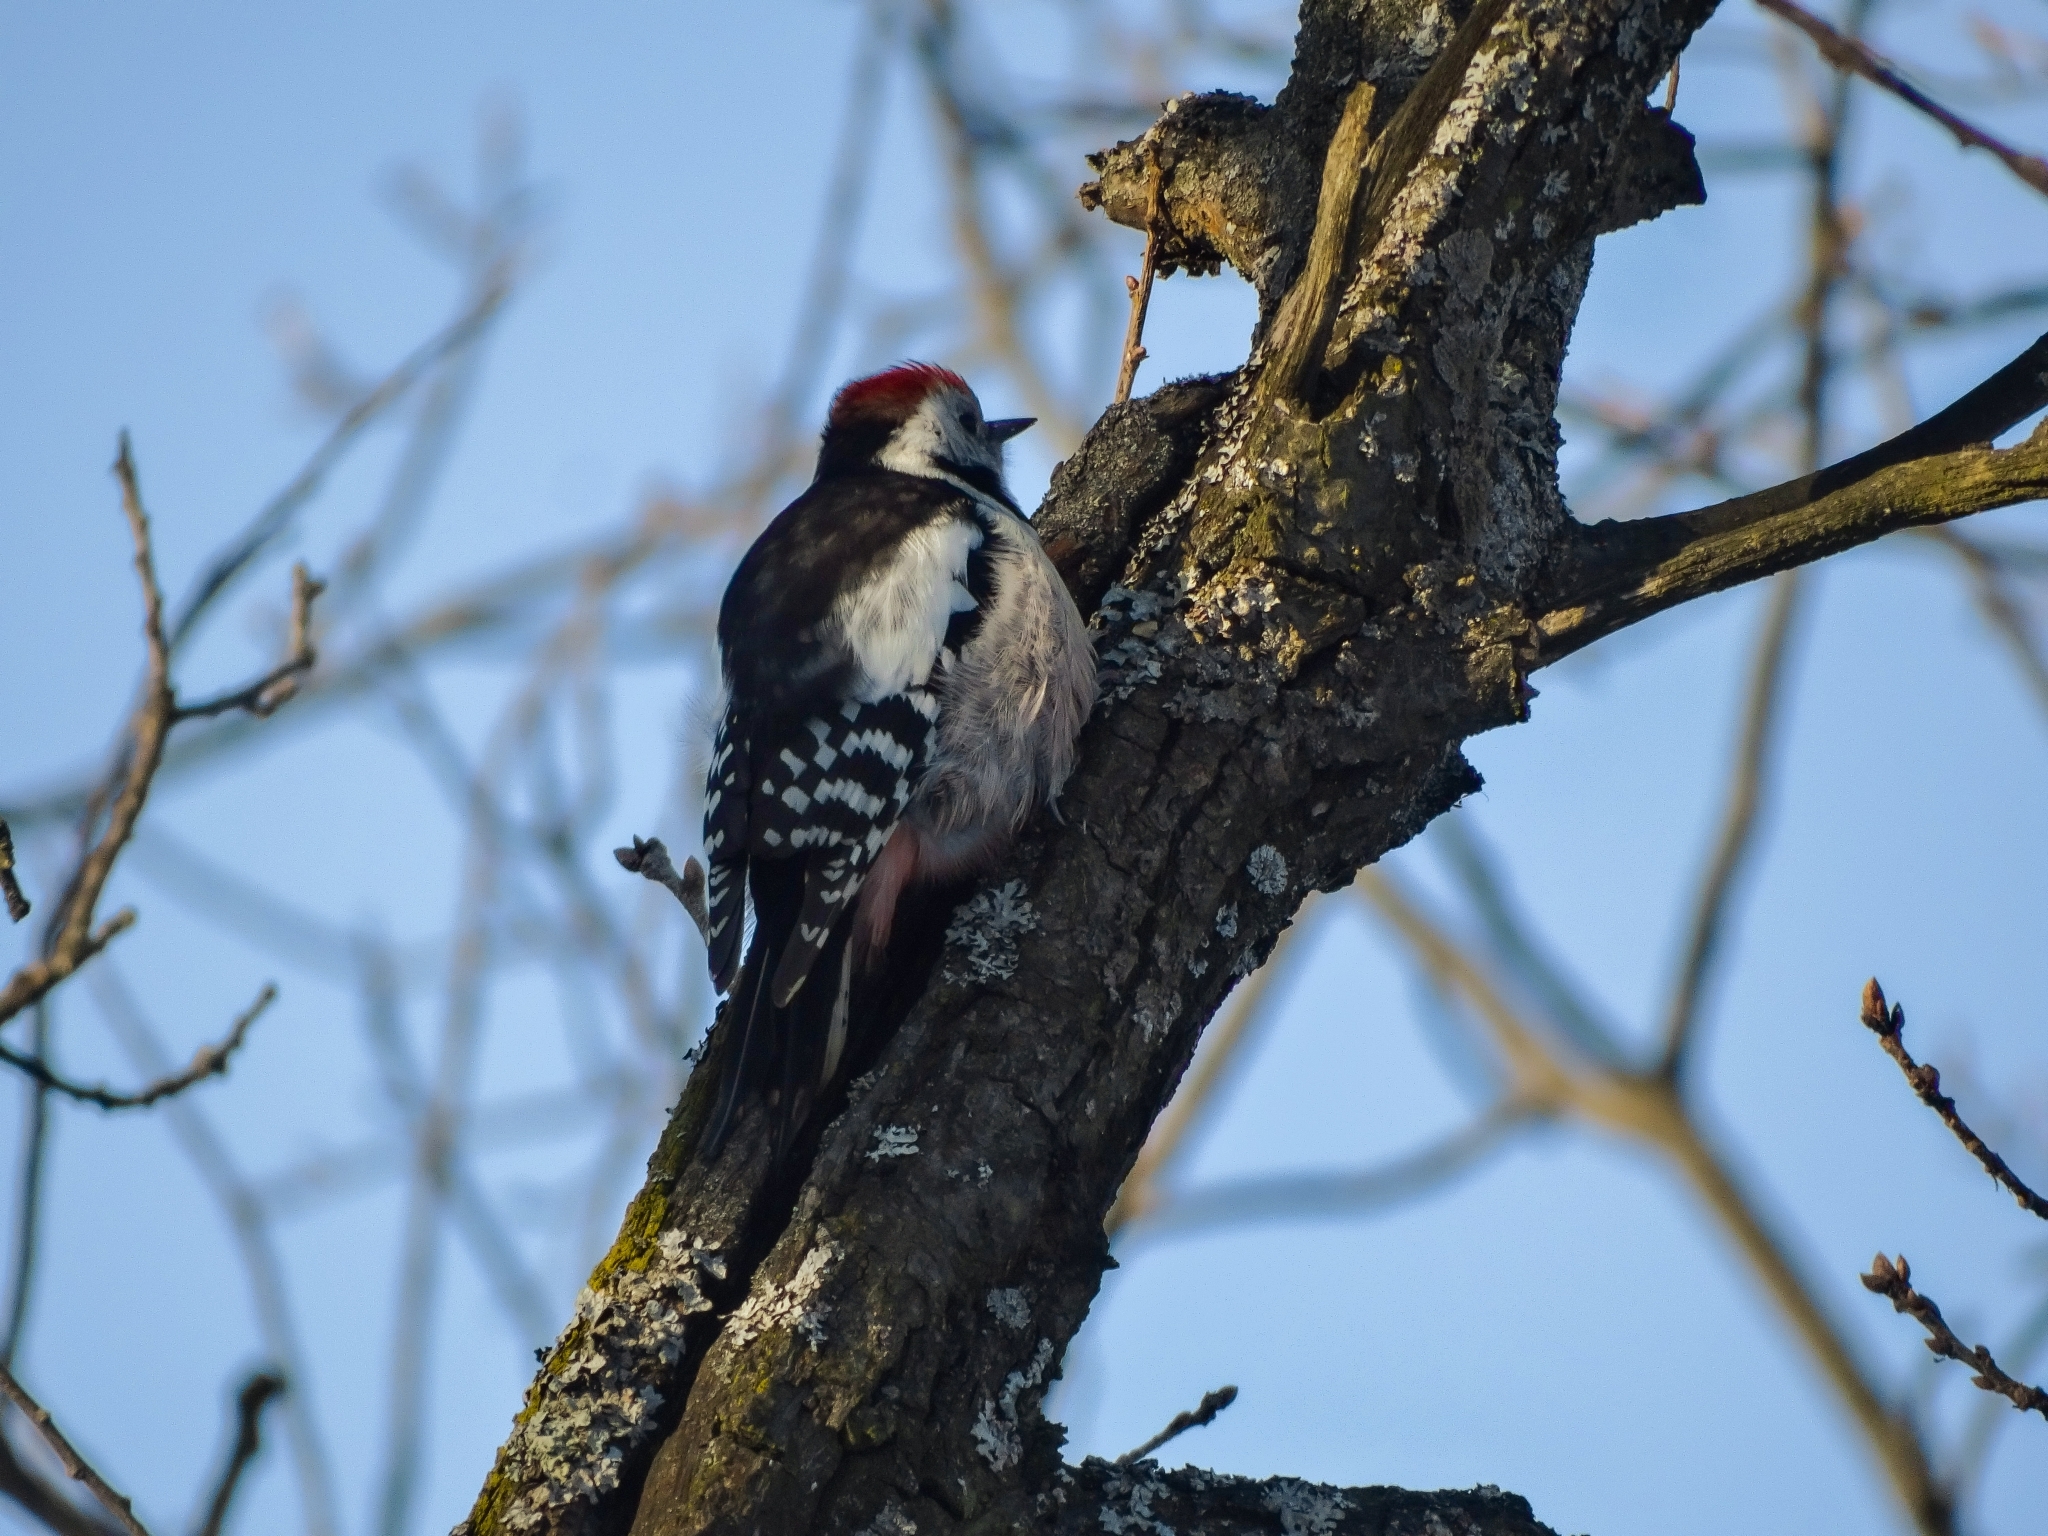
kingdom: Animalia
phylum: Chordata
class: Aves
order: Piciformes
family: Picidae
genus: Dendrocoptes
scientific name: Dendrocoptes medius
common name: Middle spotted woodpecker
